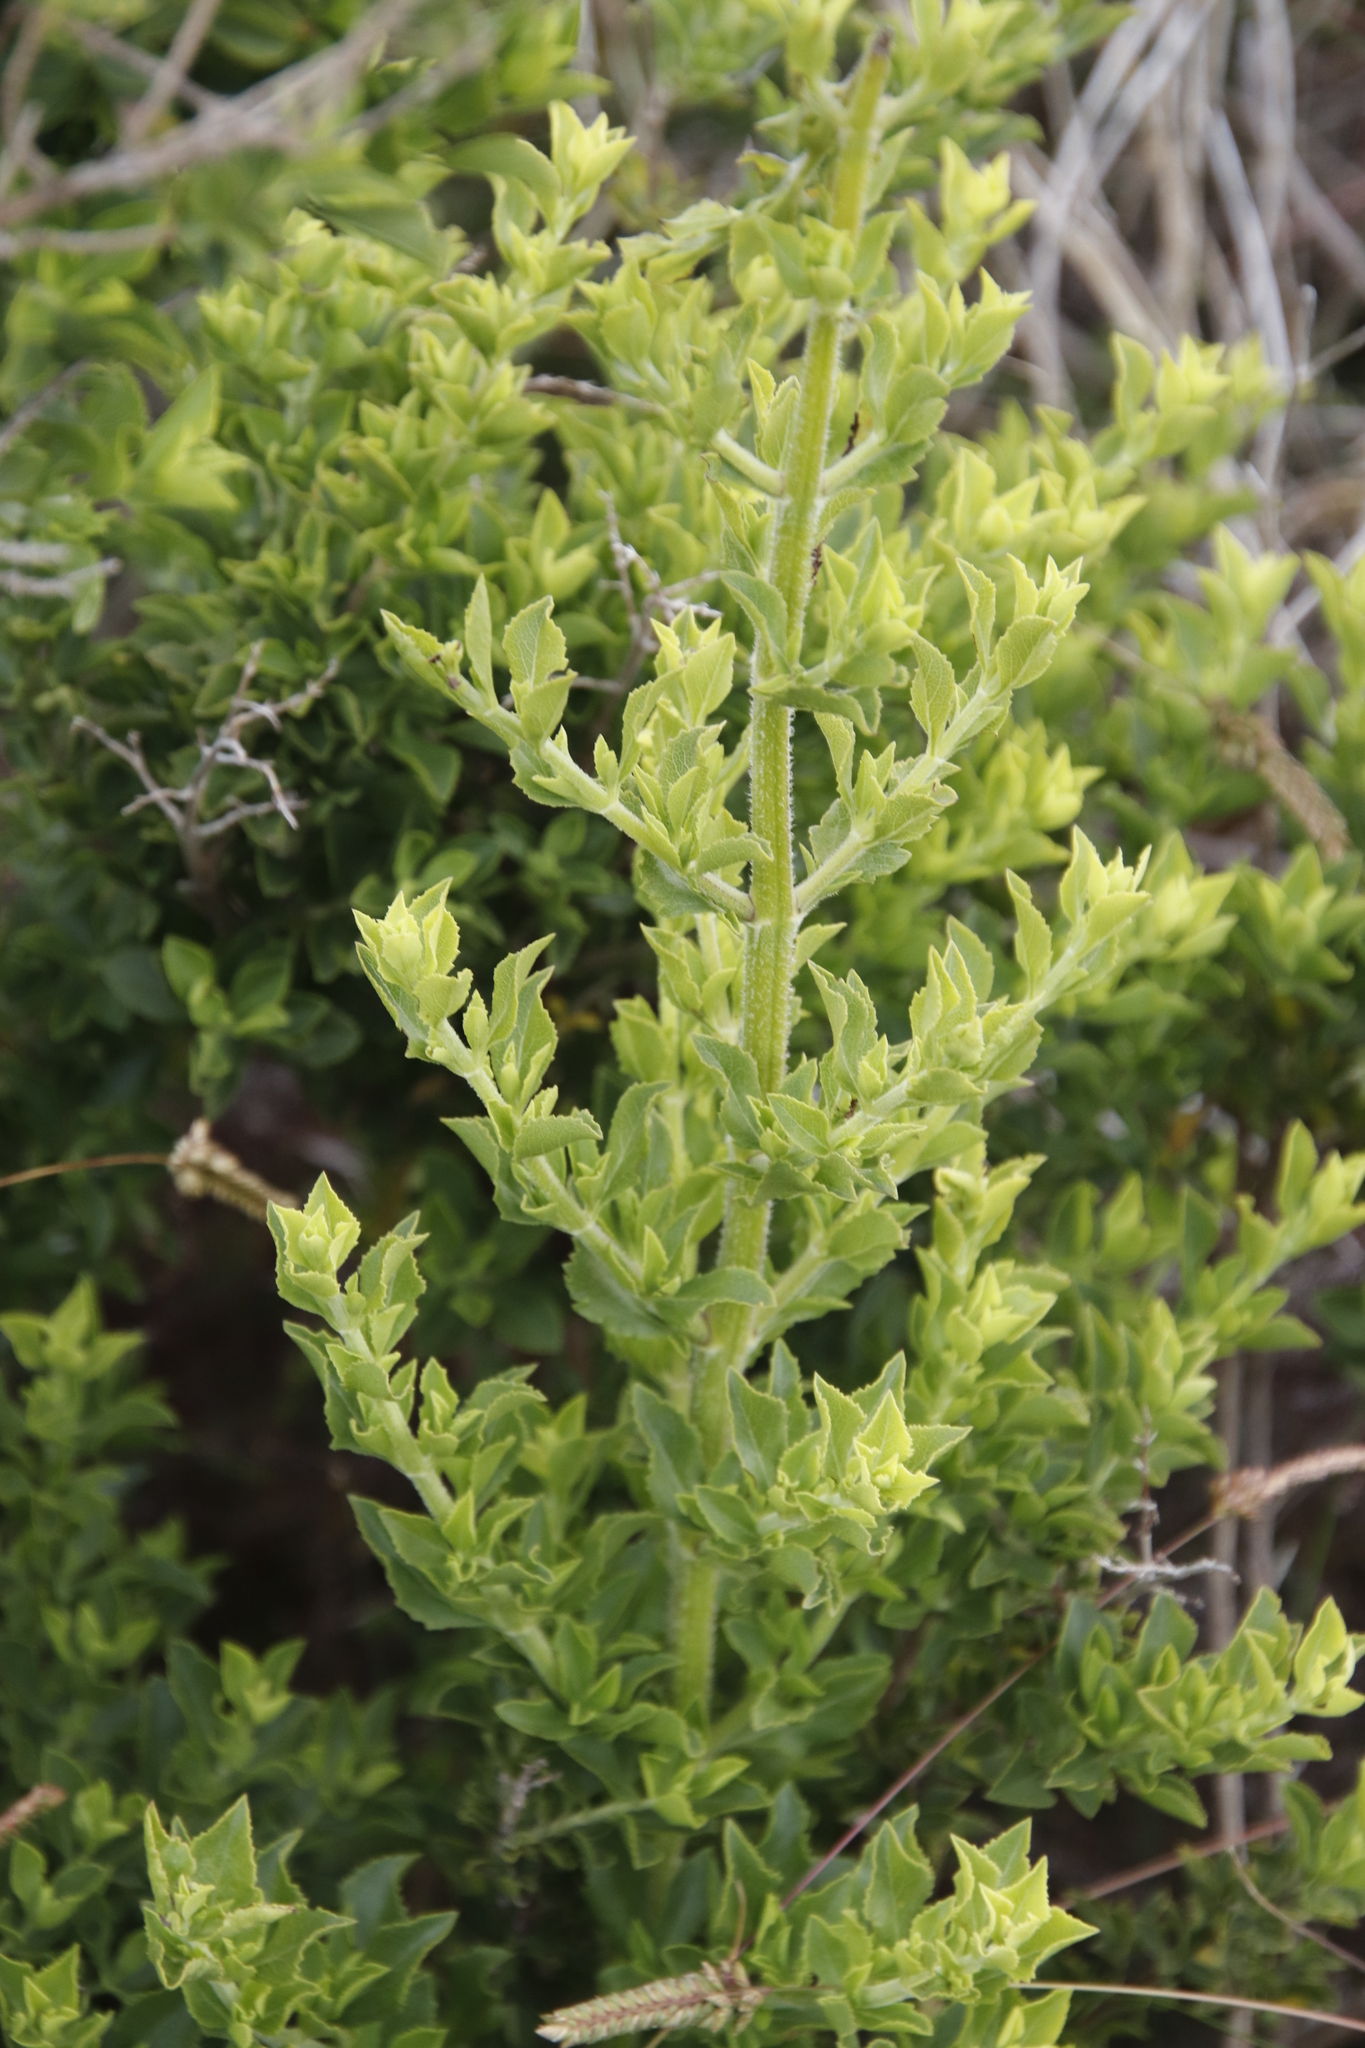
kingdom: Plantae
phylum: Tracheophyta
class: Magnoliopsida
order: Lamiales
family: Lamiaceae
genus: Salvia
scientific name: Salvia chamelaeagnea
